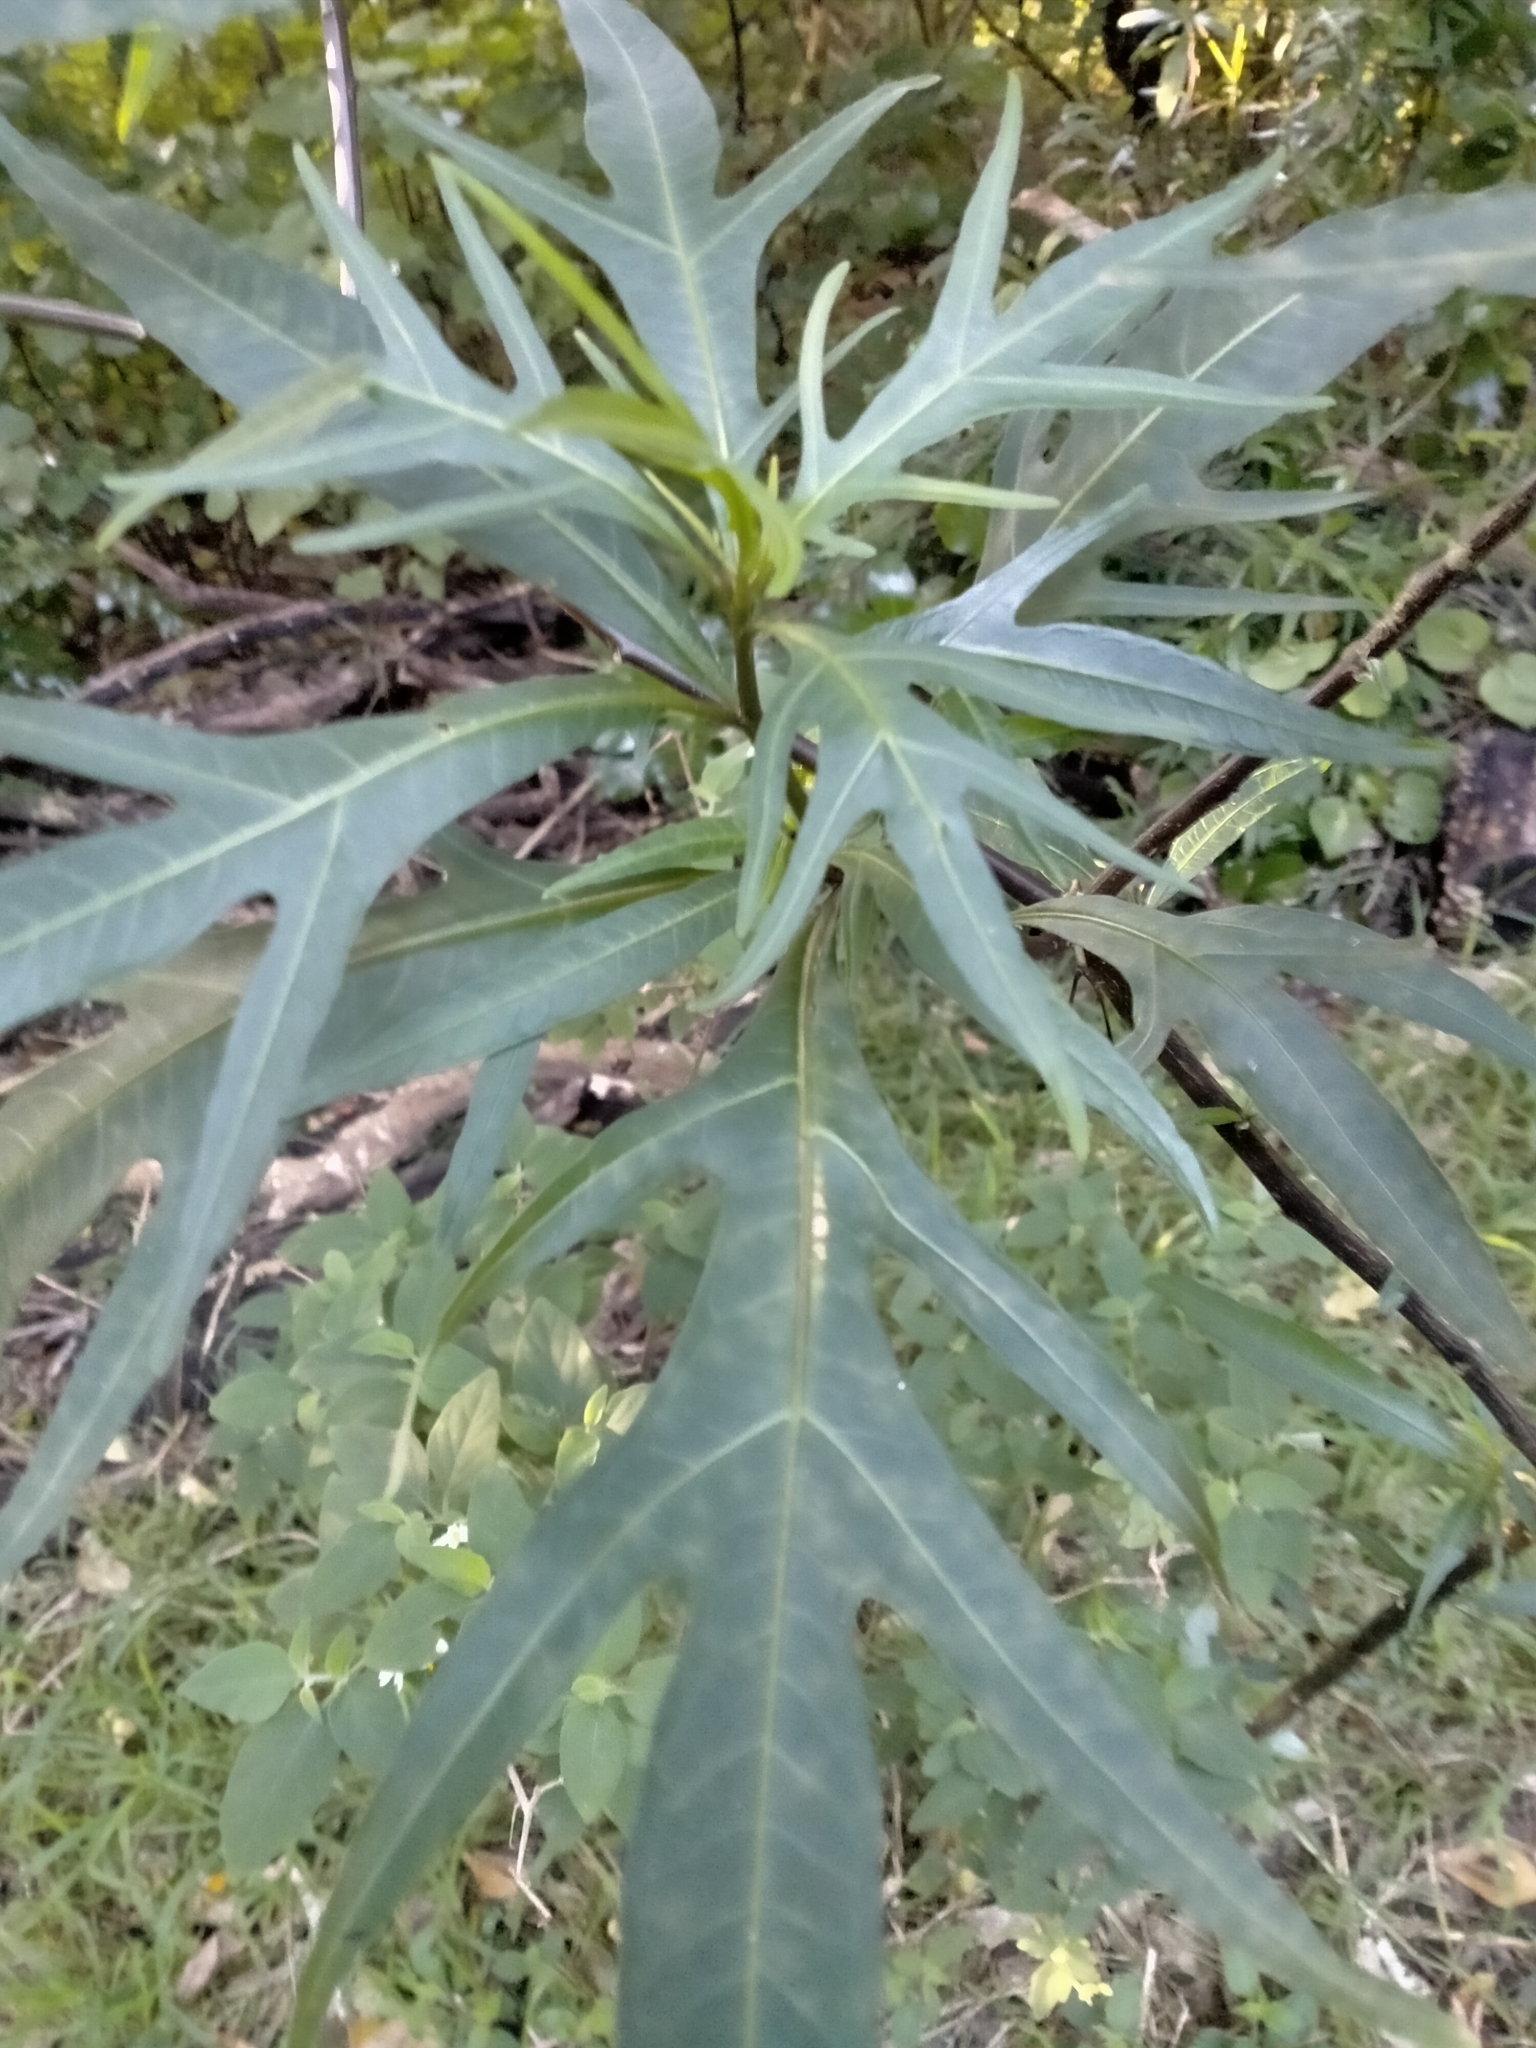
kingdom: Plantae
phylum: Tracheophyta
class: Magnoliopsida
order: Solanales
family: Solanaceae
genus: Solanum
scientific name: Solanum
